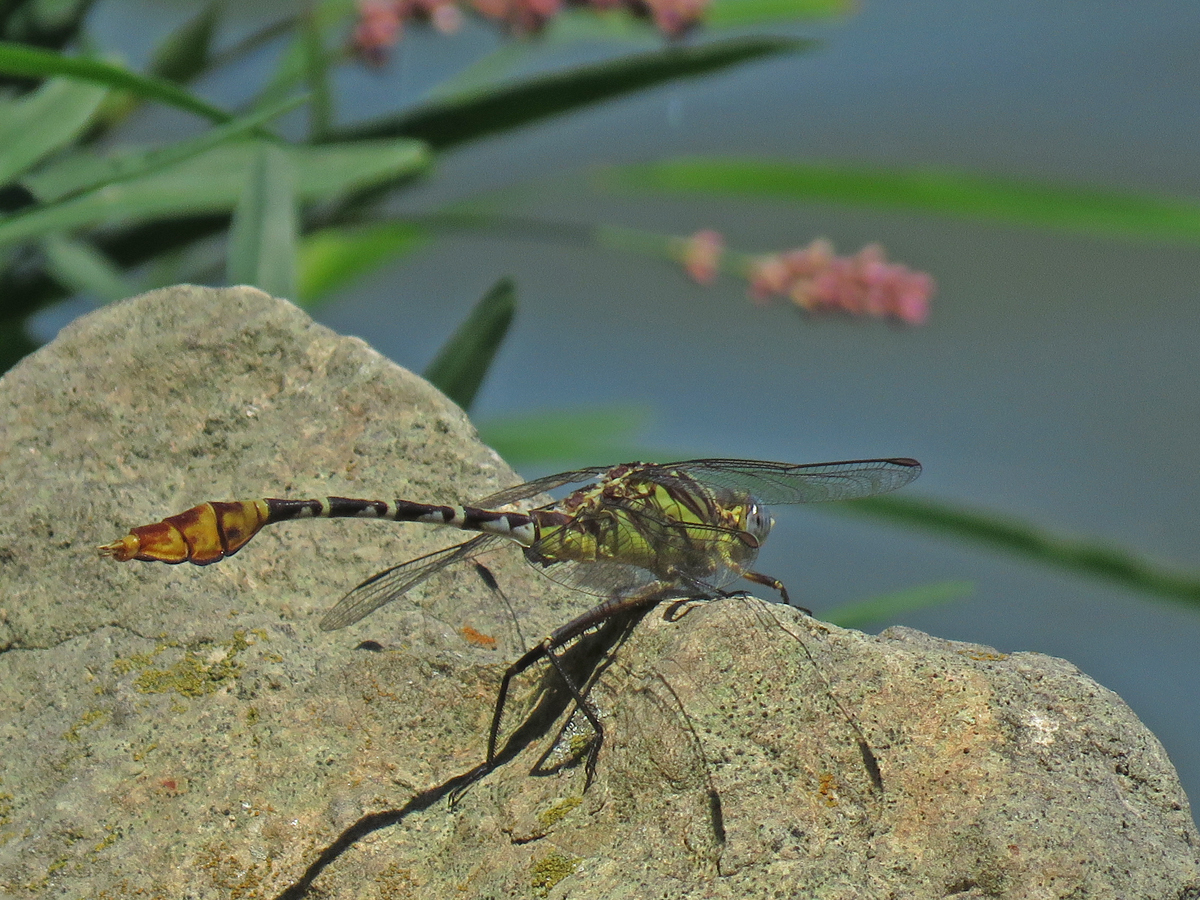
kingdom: Animalia
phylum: Arthropoda
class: Insecta
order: Odonata
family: Gomphidae
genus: Dromogomphus
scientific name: Dromogomphus spoliatus
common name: Flag-tailed spinyleg
